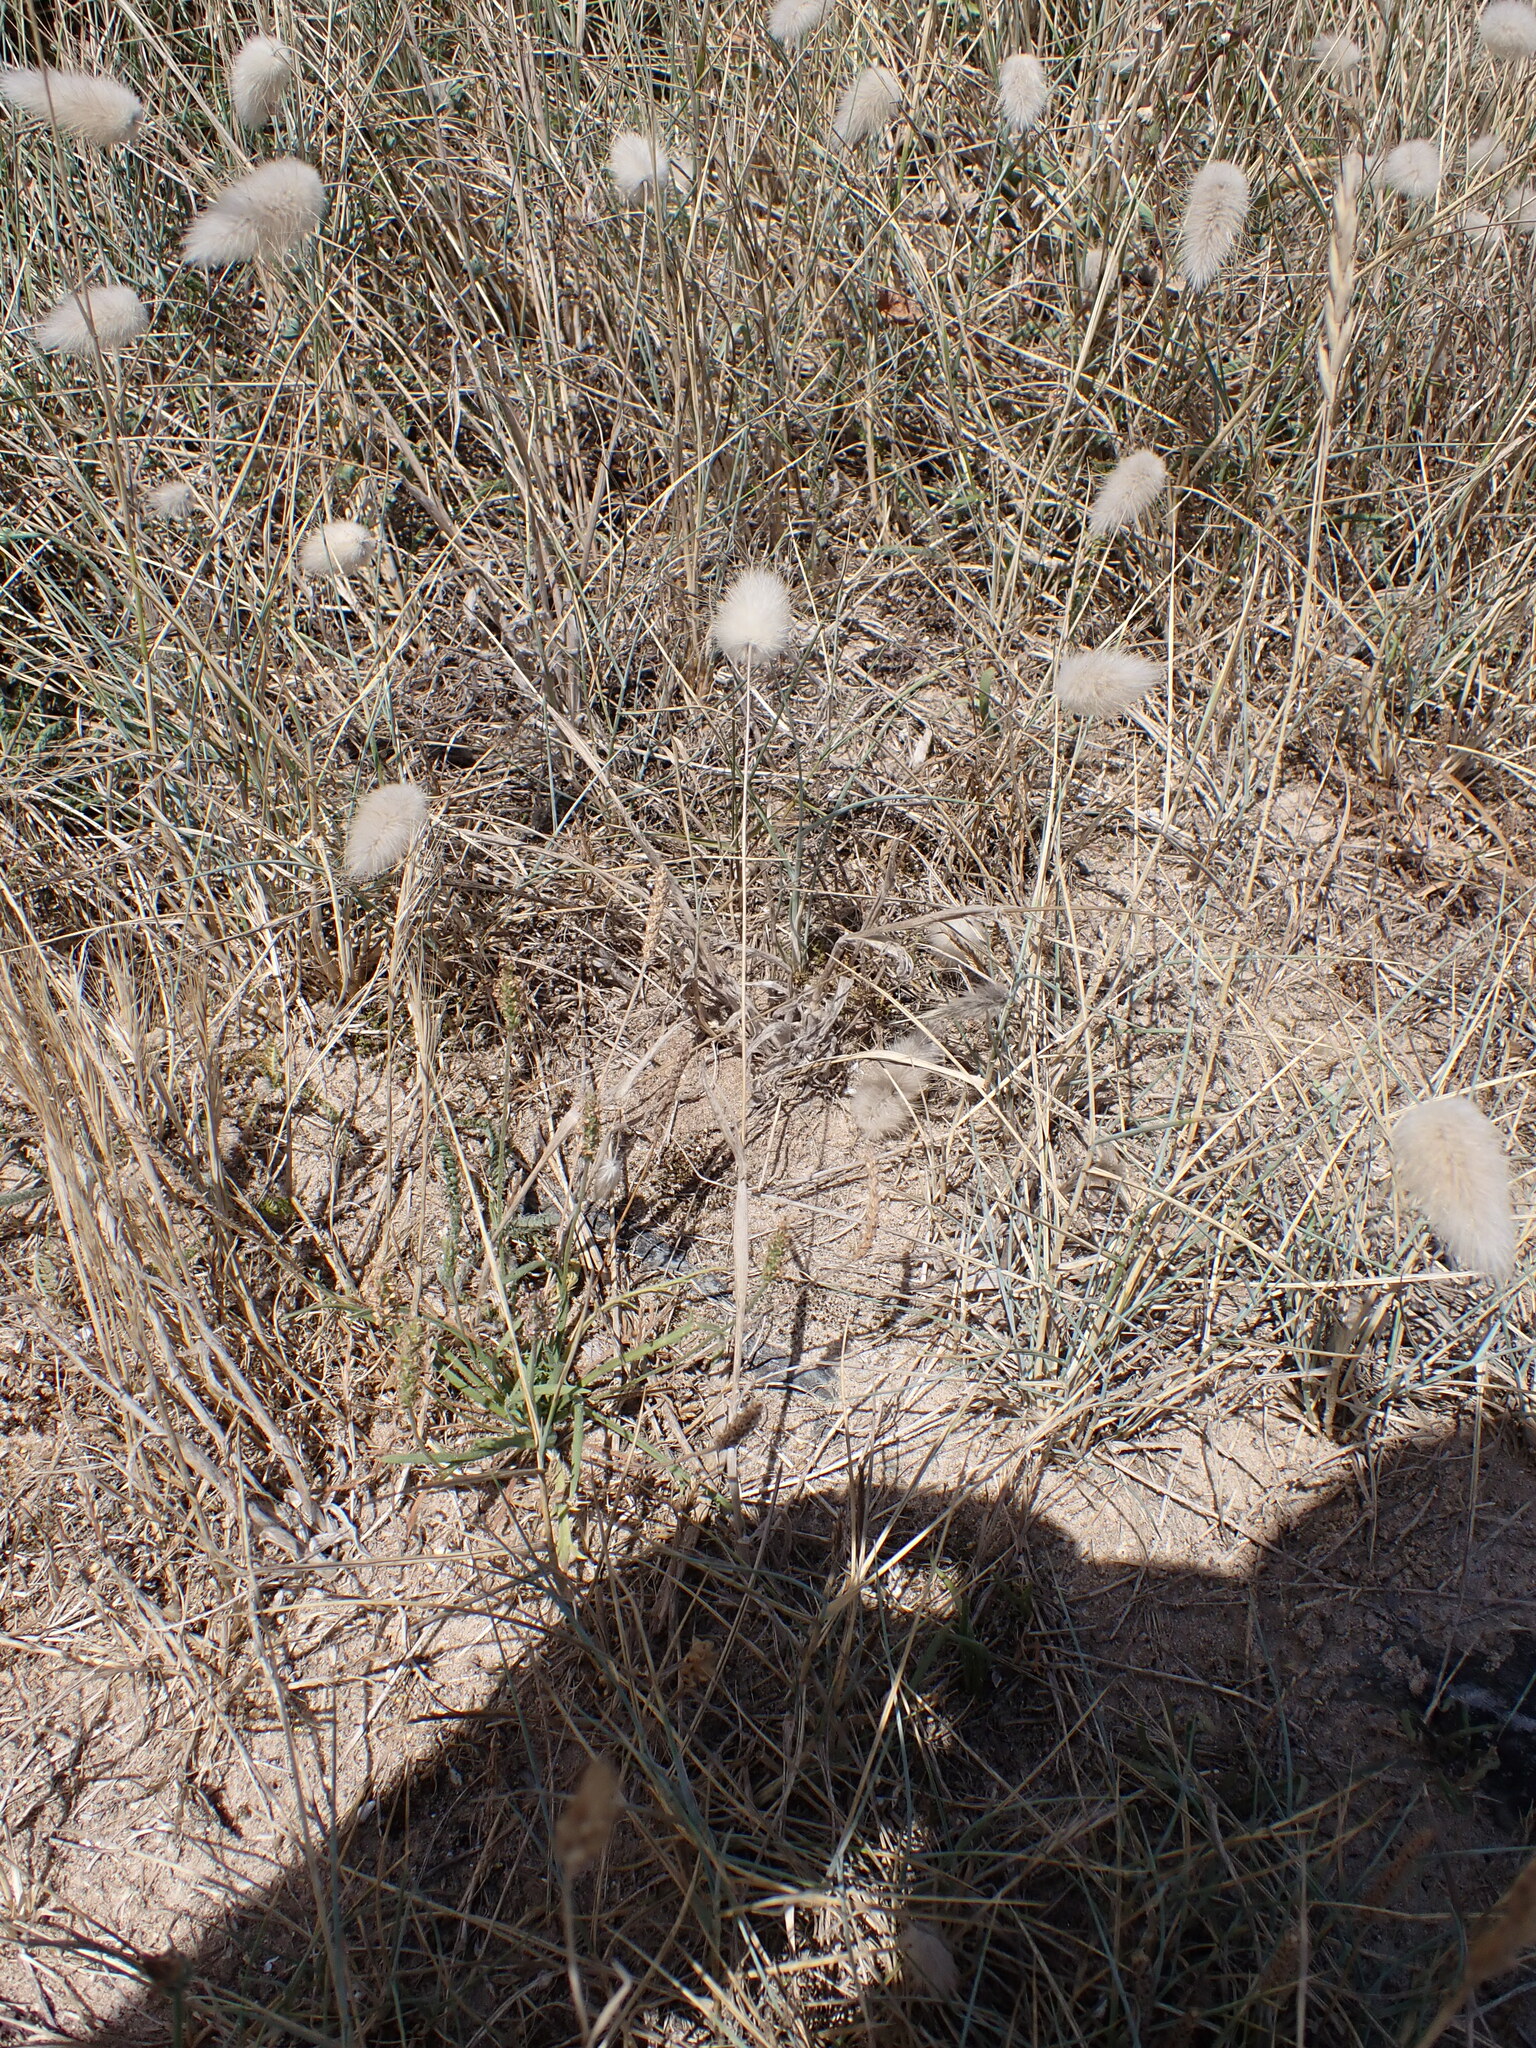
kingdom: Plantae
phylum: Tracheophyta
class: Liliopsida
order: Poales
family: Poaceae
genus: Lagurus
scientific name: Lagurus ovatus
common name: Hare's-tail
